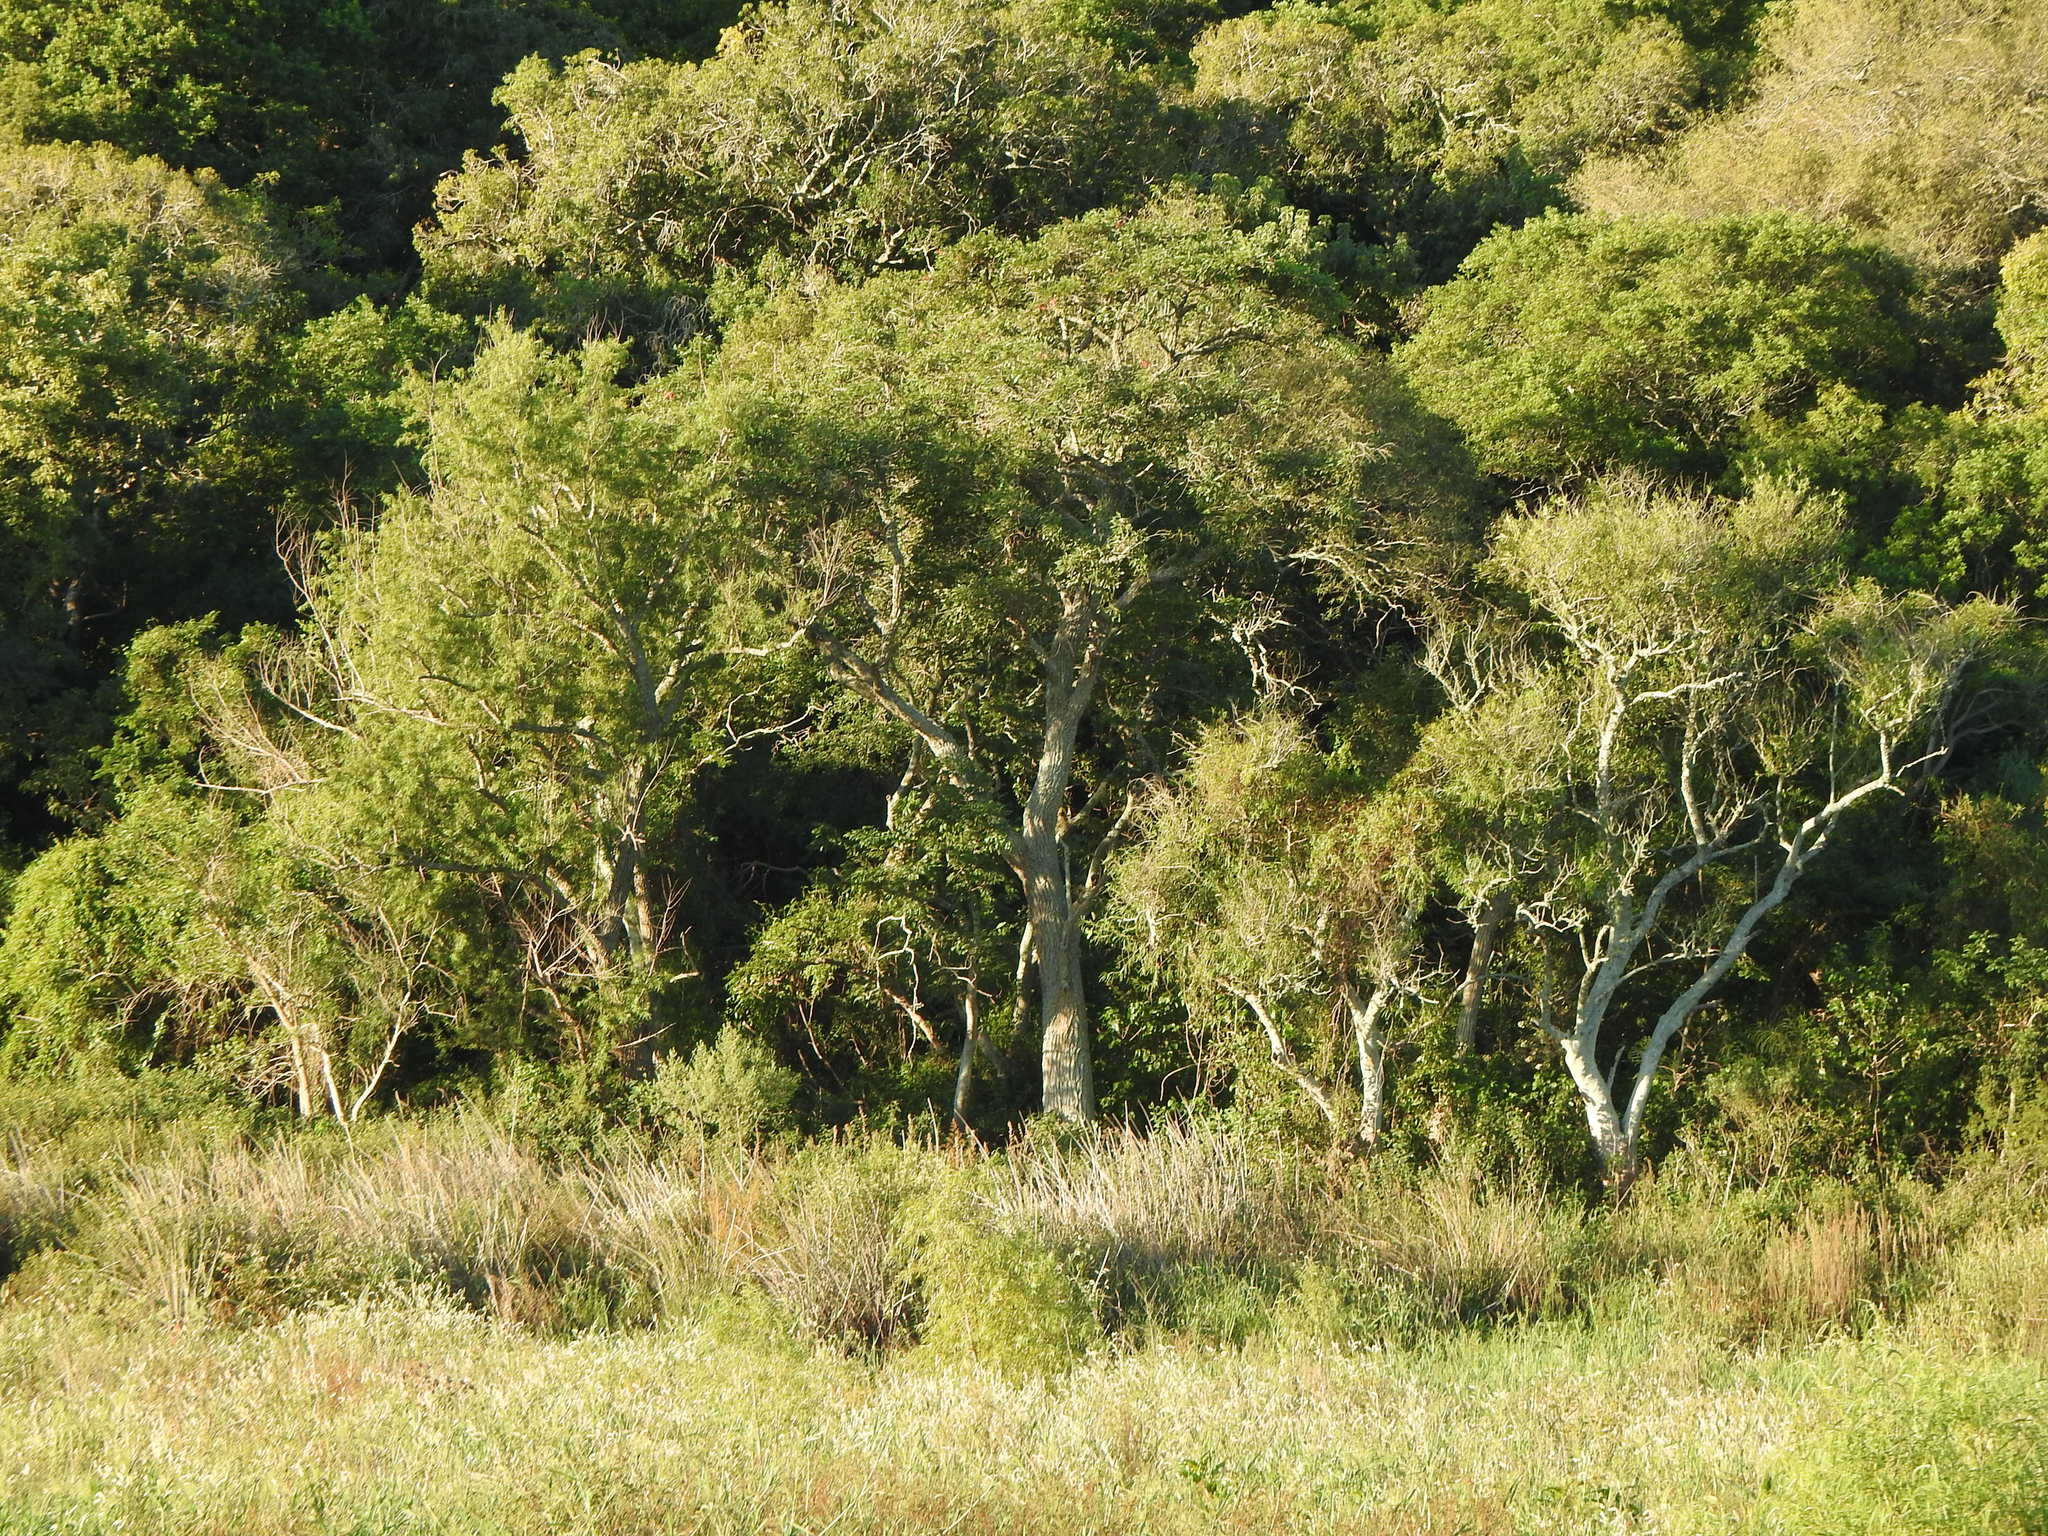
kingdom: Plantae
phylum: Tracheophyta
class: Magnoliopsida
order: Fabales
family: Fabaceae
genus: Erythrina
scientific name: Erythrina crista-galli
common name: Cockspur coral tree
